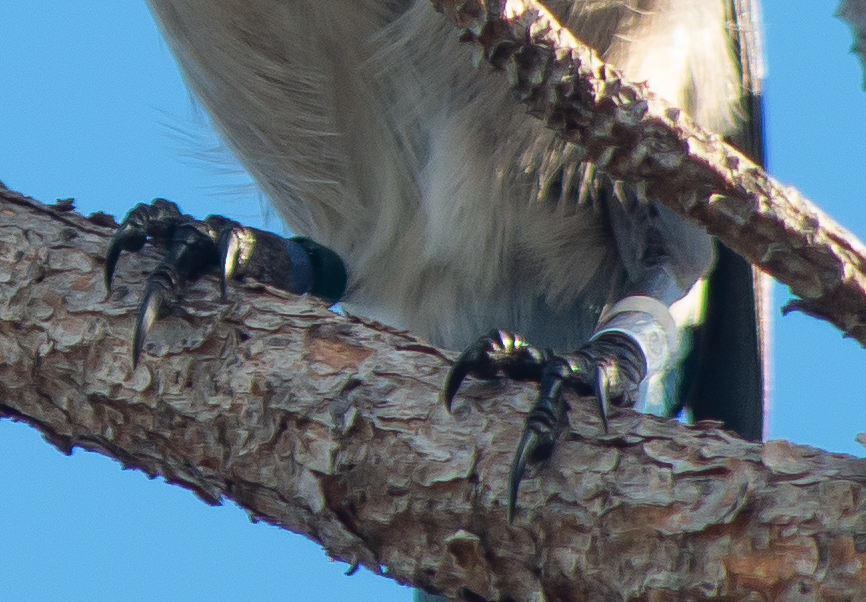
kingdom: Animalia
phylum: Chordata
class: Aves
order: Passeriformes
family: Corvidae
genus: Aphelocoma
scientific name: Aphelocoma coerulescens
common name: Florida scrub jay
